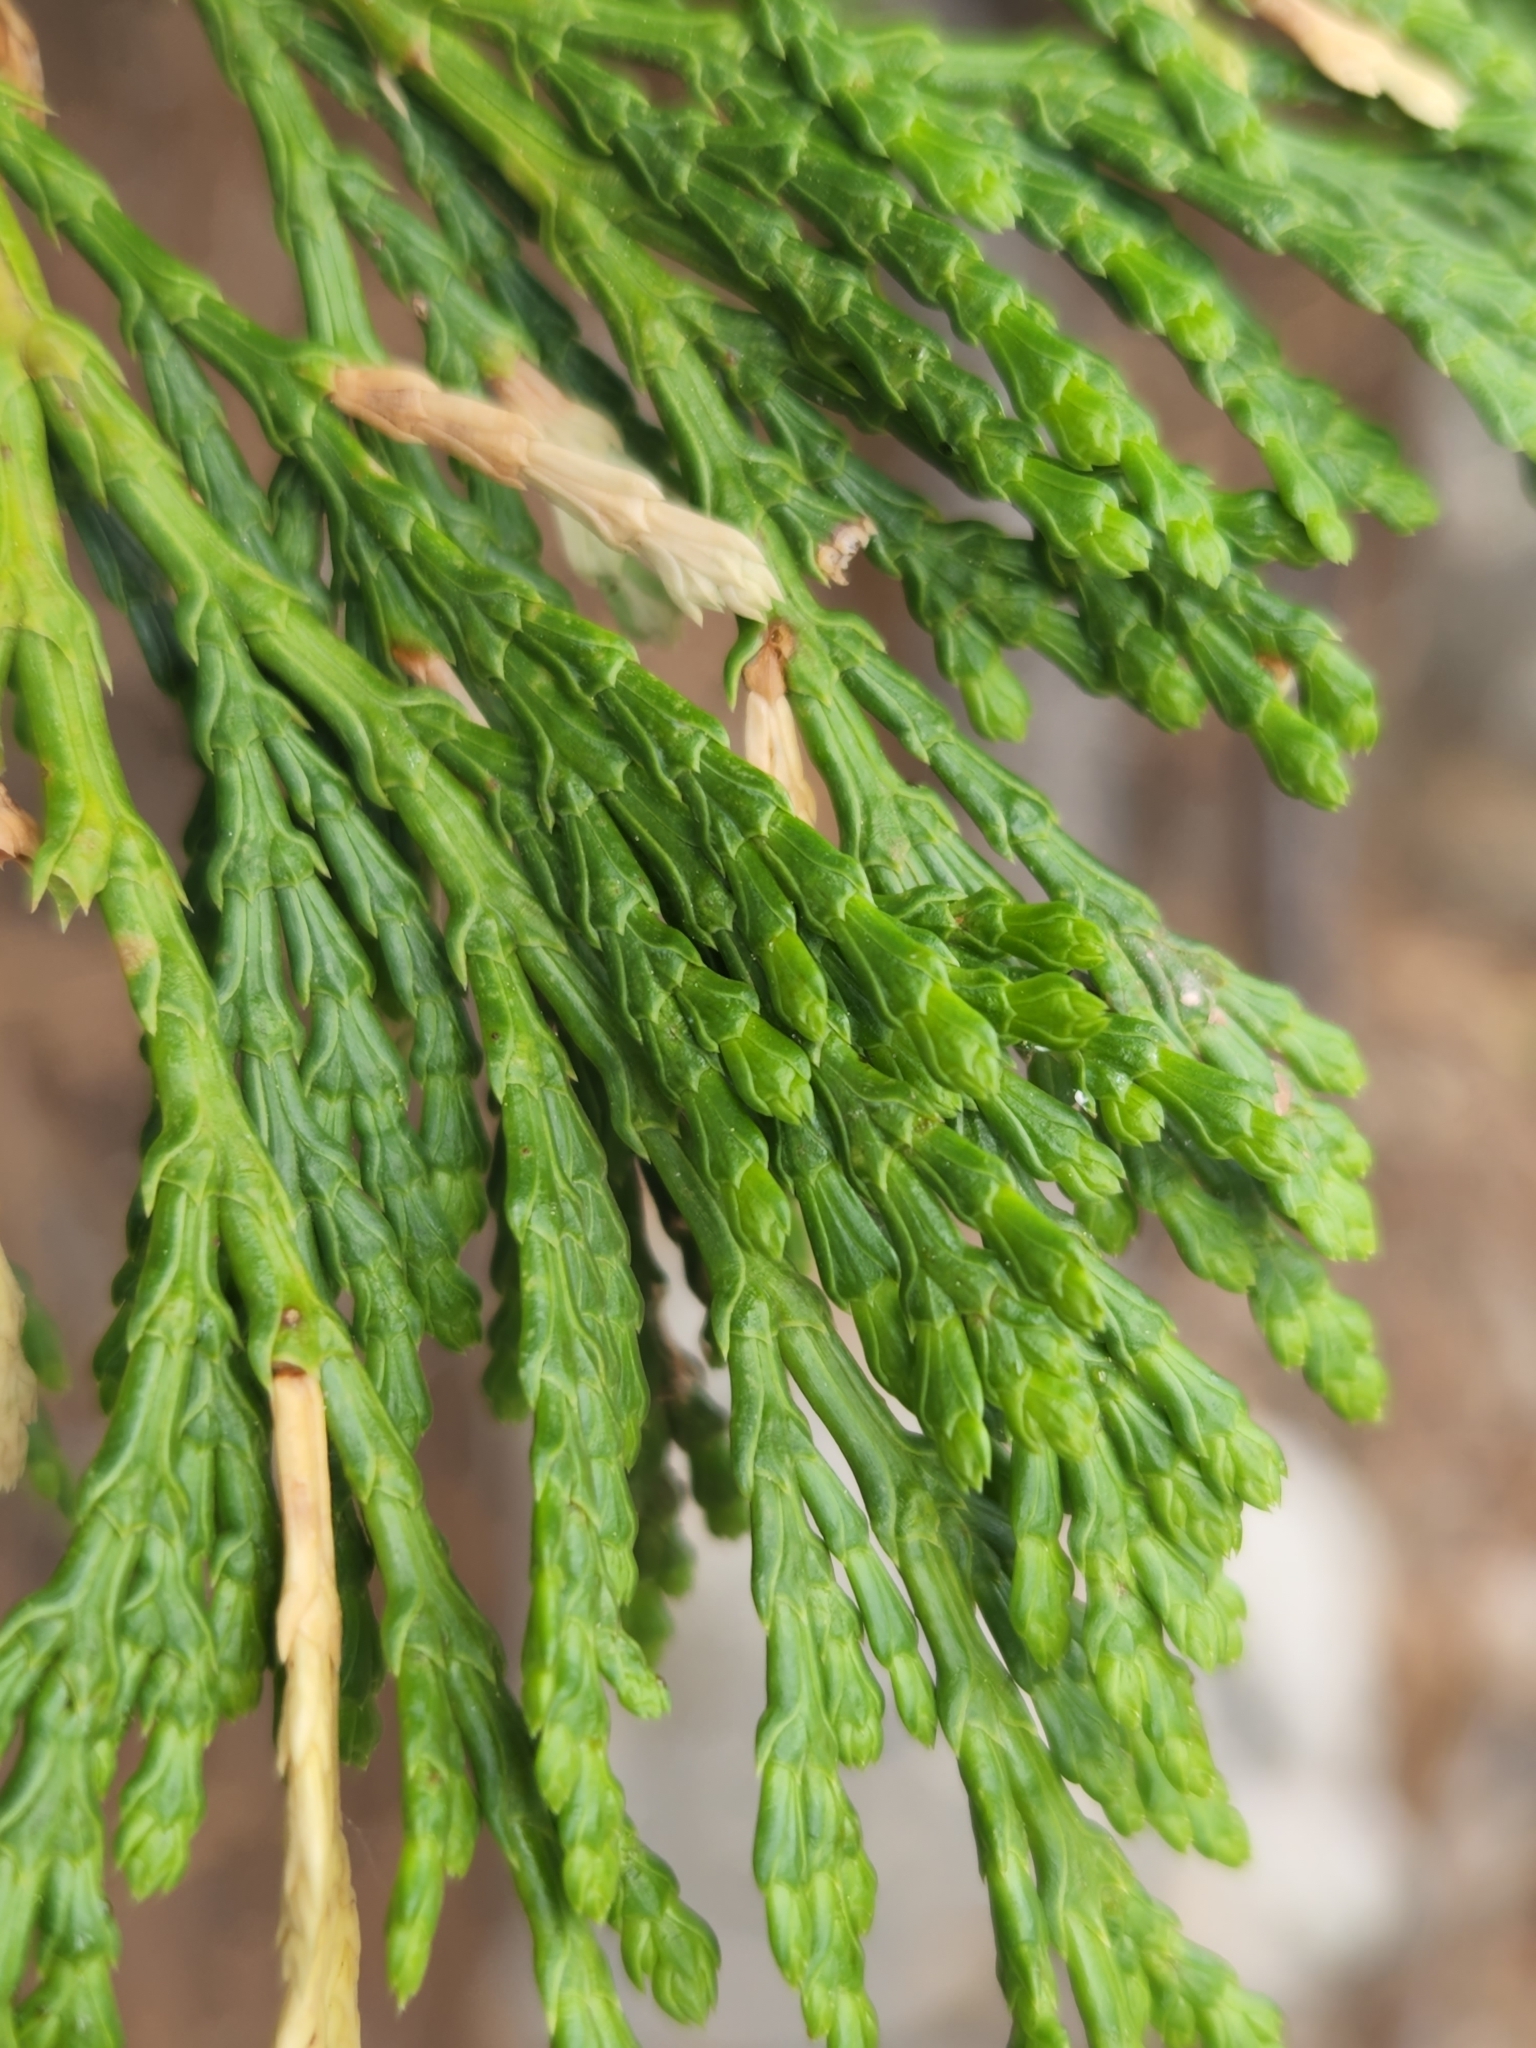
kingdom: Plantae
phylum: Tracheophyta
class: Pinopsida
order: Pinales
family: Cupressaceae
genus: Calocedrus
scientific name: Calocedrus decurrens
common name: Californian incense-cedar
